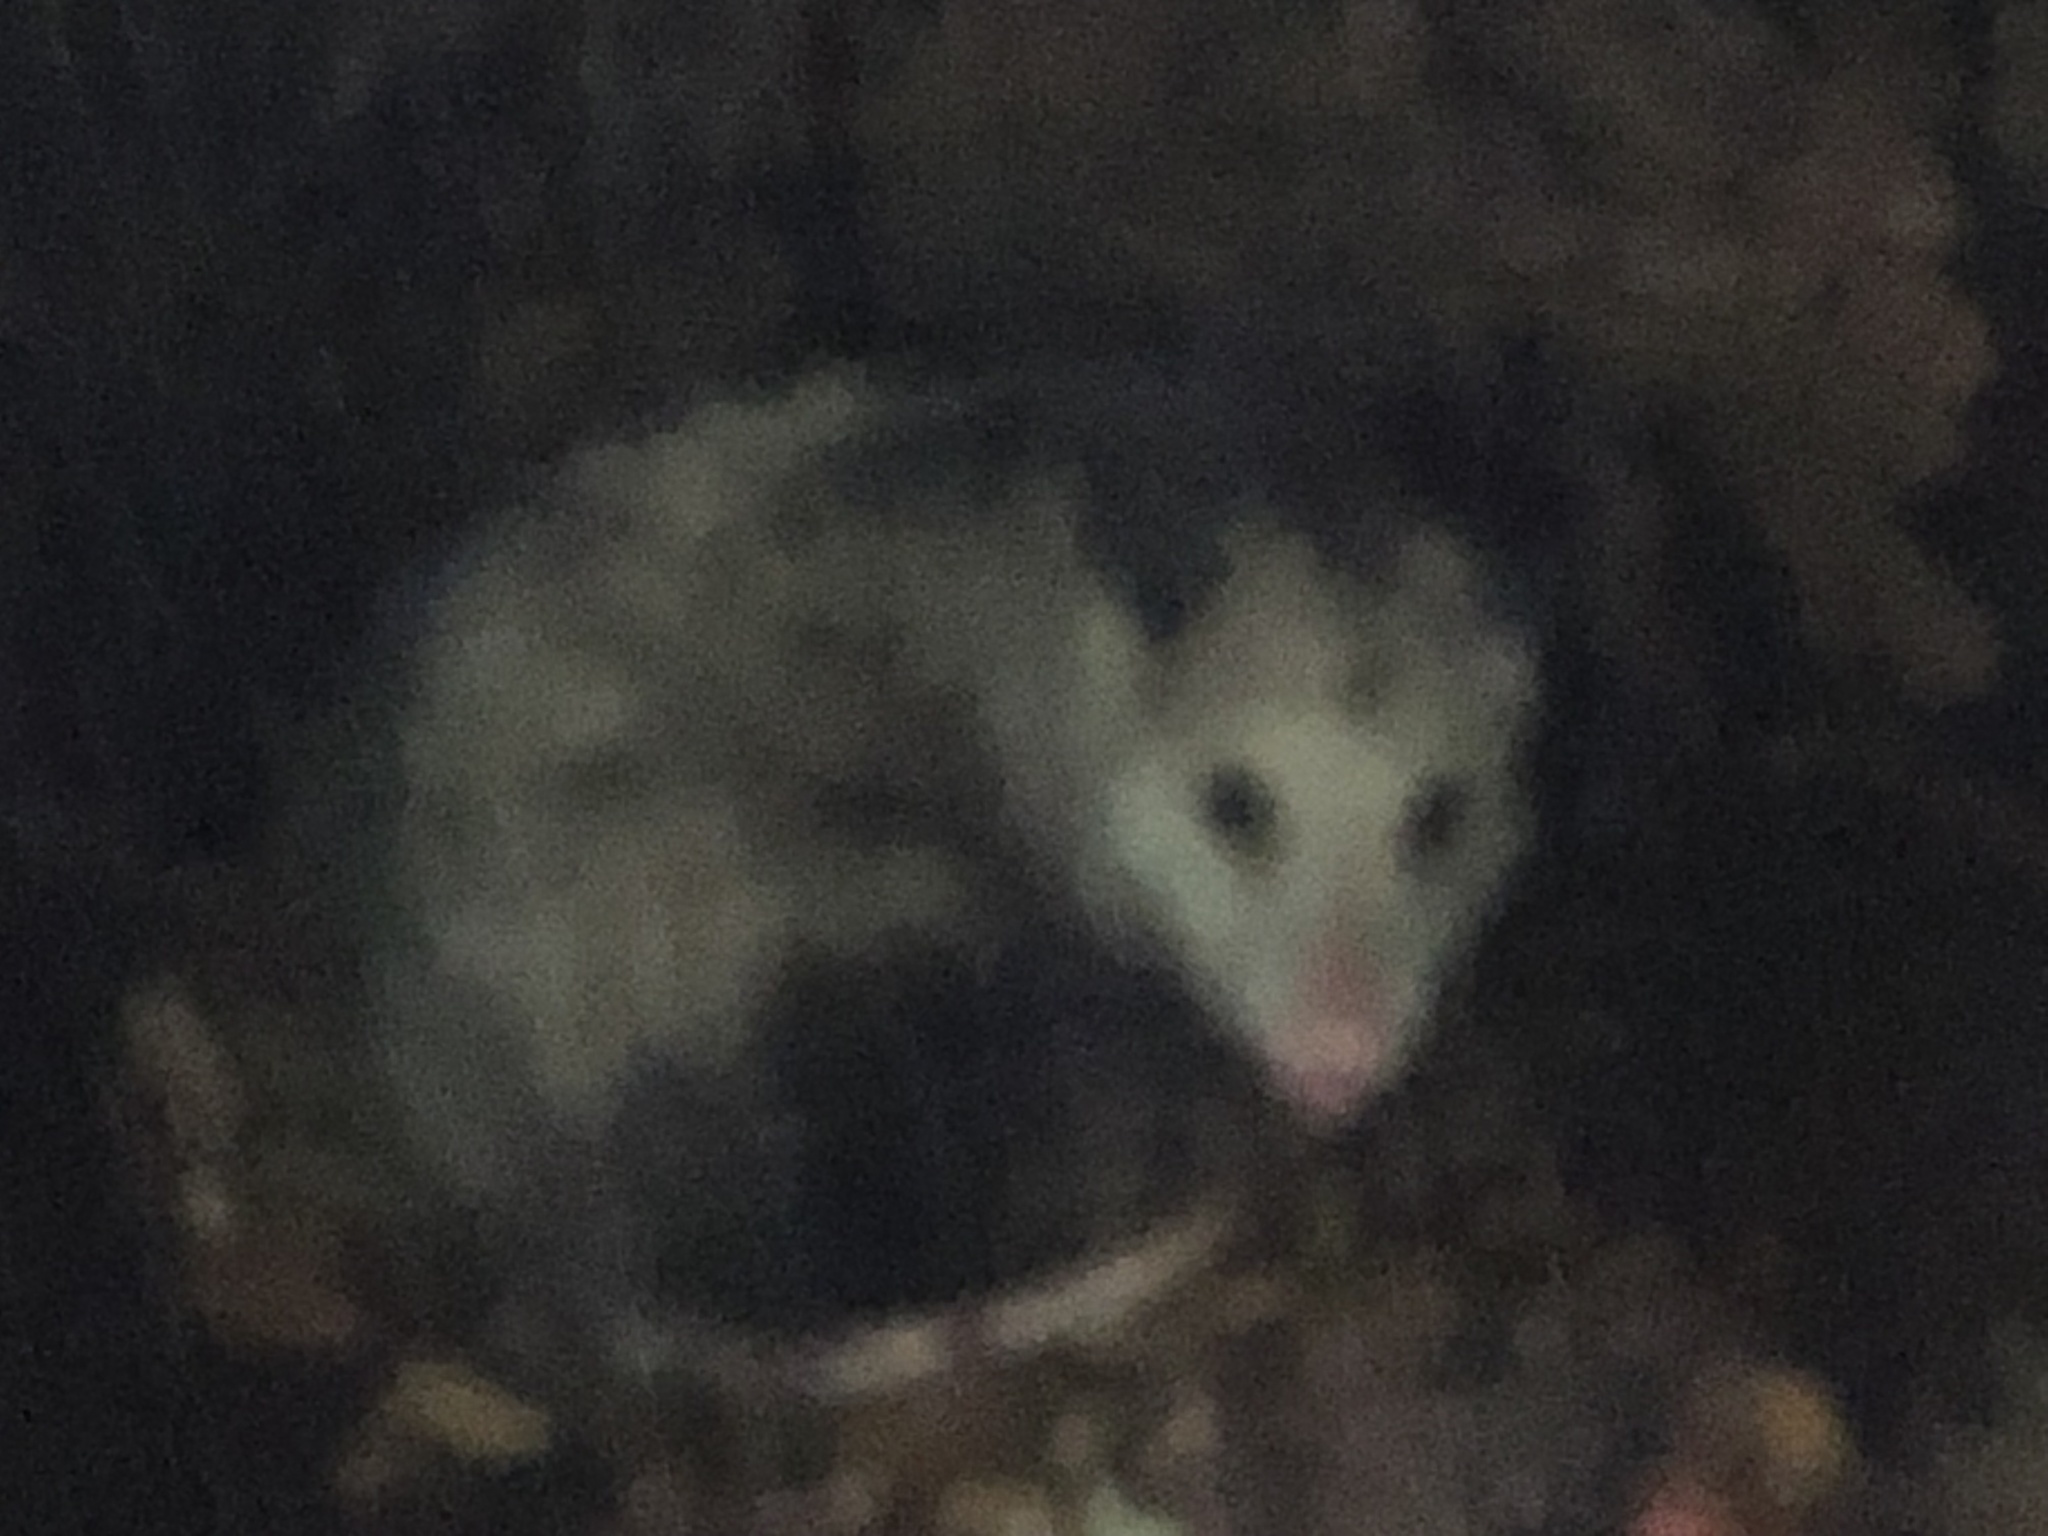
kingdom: Animalia
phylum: Chordata
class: Mammalia
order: Didelphimorphia
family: Didelphidae
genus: Didelphis
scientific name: Didelphis virginiana
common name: Virginia opossum
